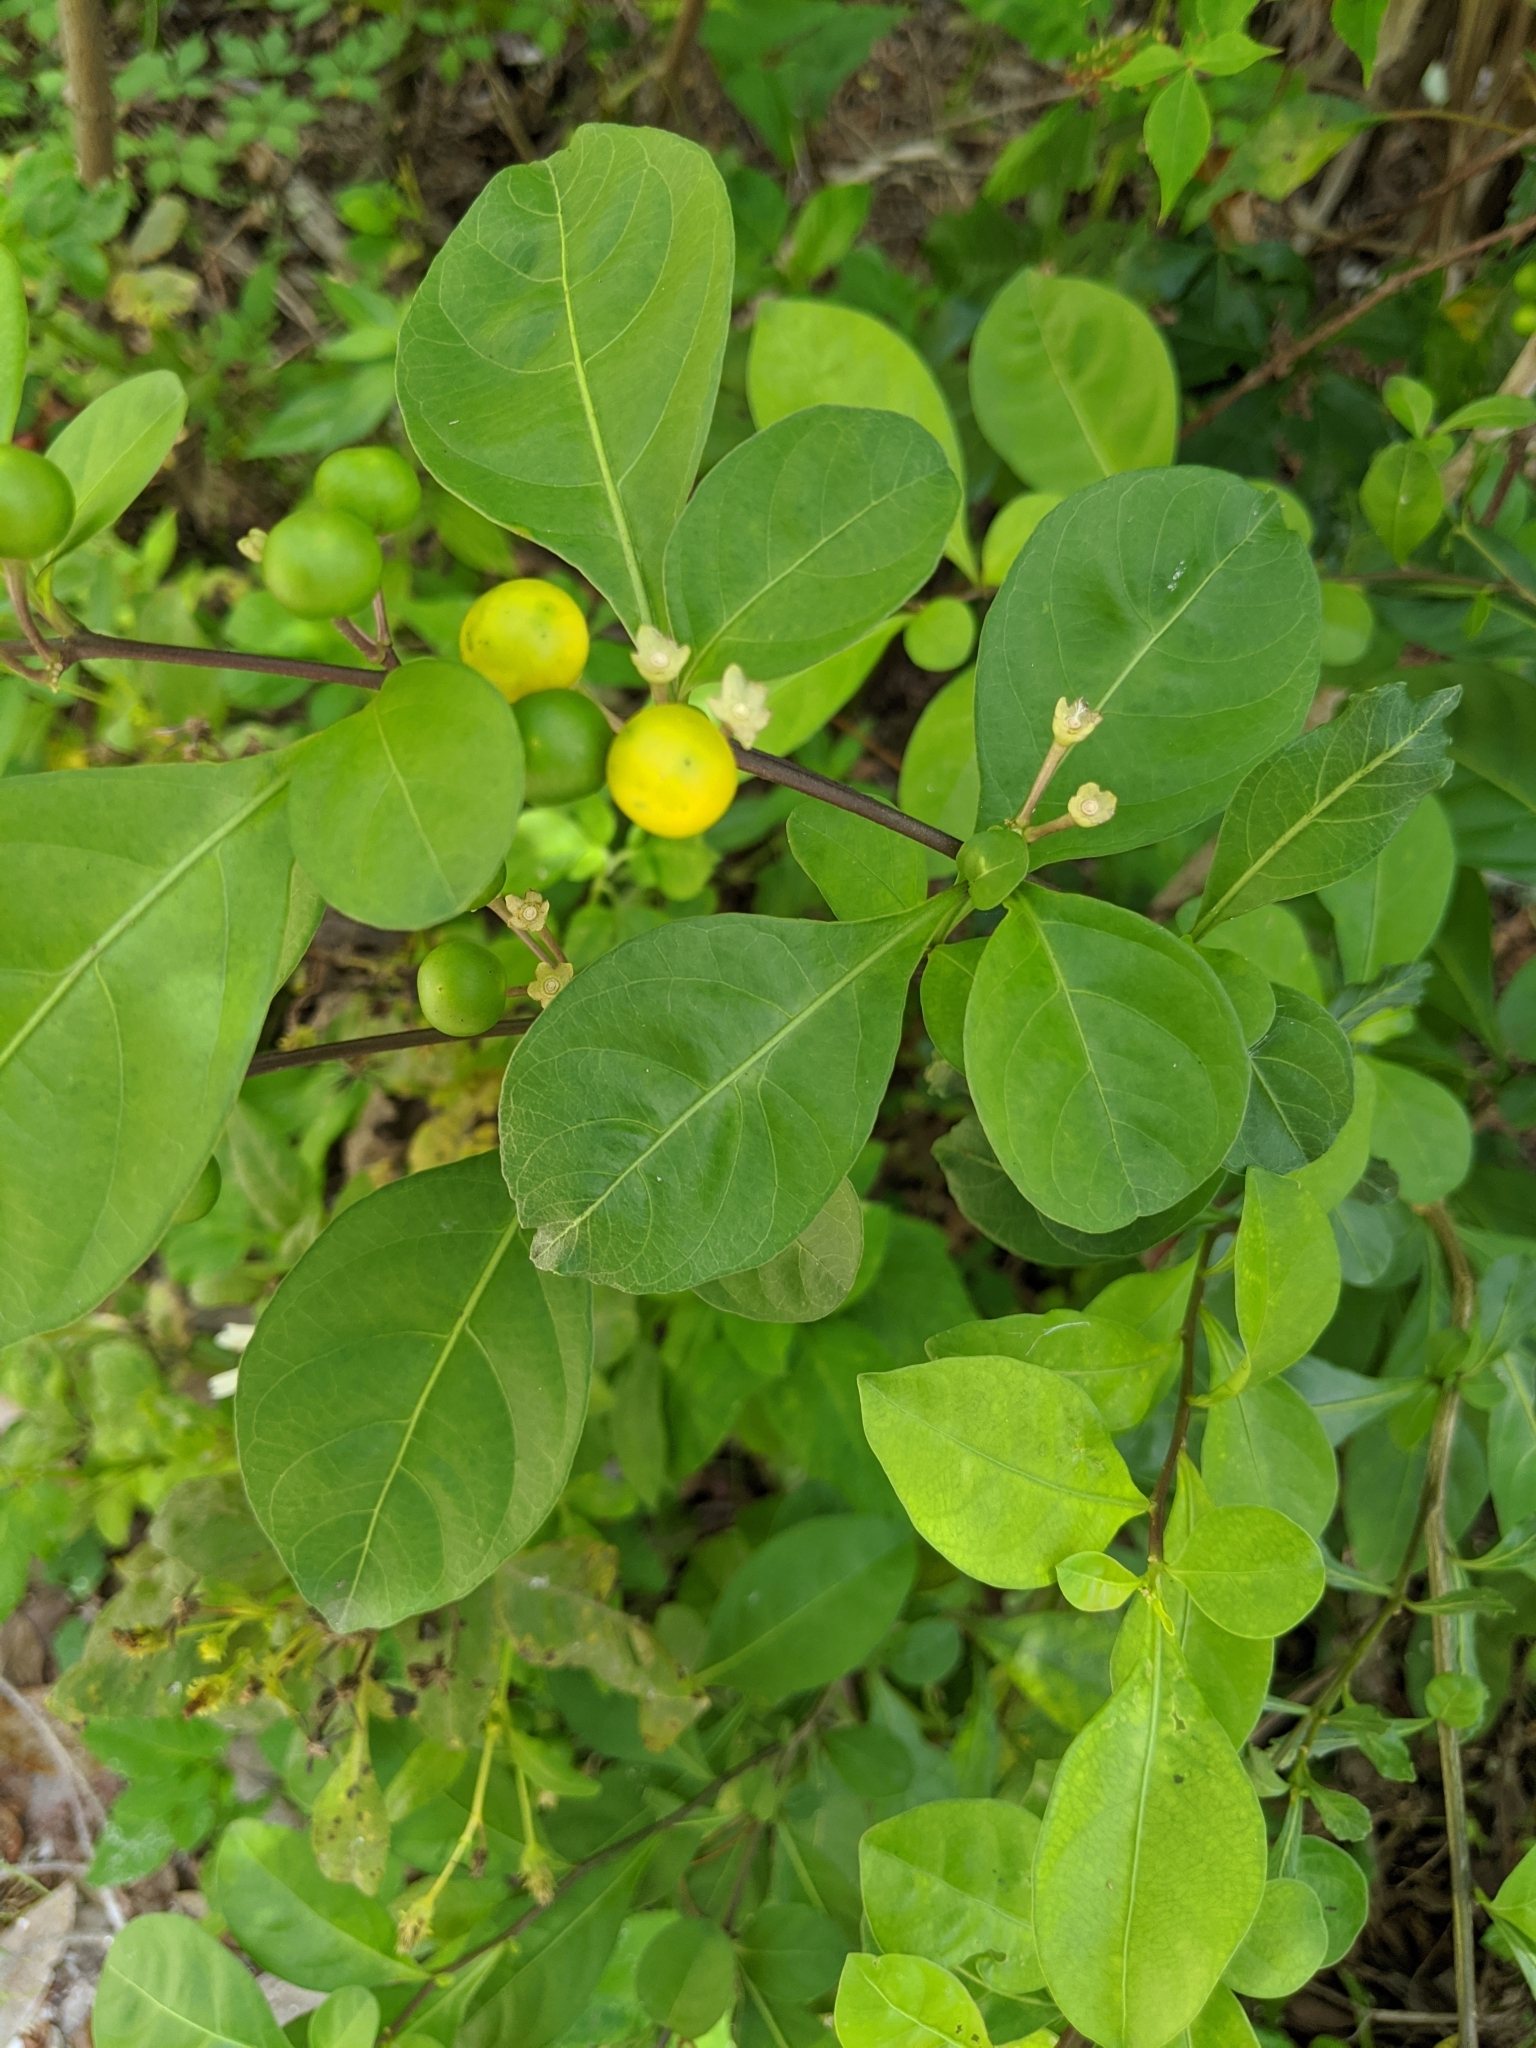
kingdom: Plantae
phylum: Tracheophyta
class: Magnoliopsida
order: Solanales
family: Solanaceae
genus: Solanum
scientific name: Solanum diphyllum
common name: Twoleaf nightshade
